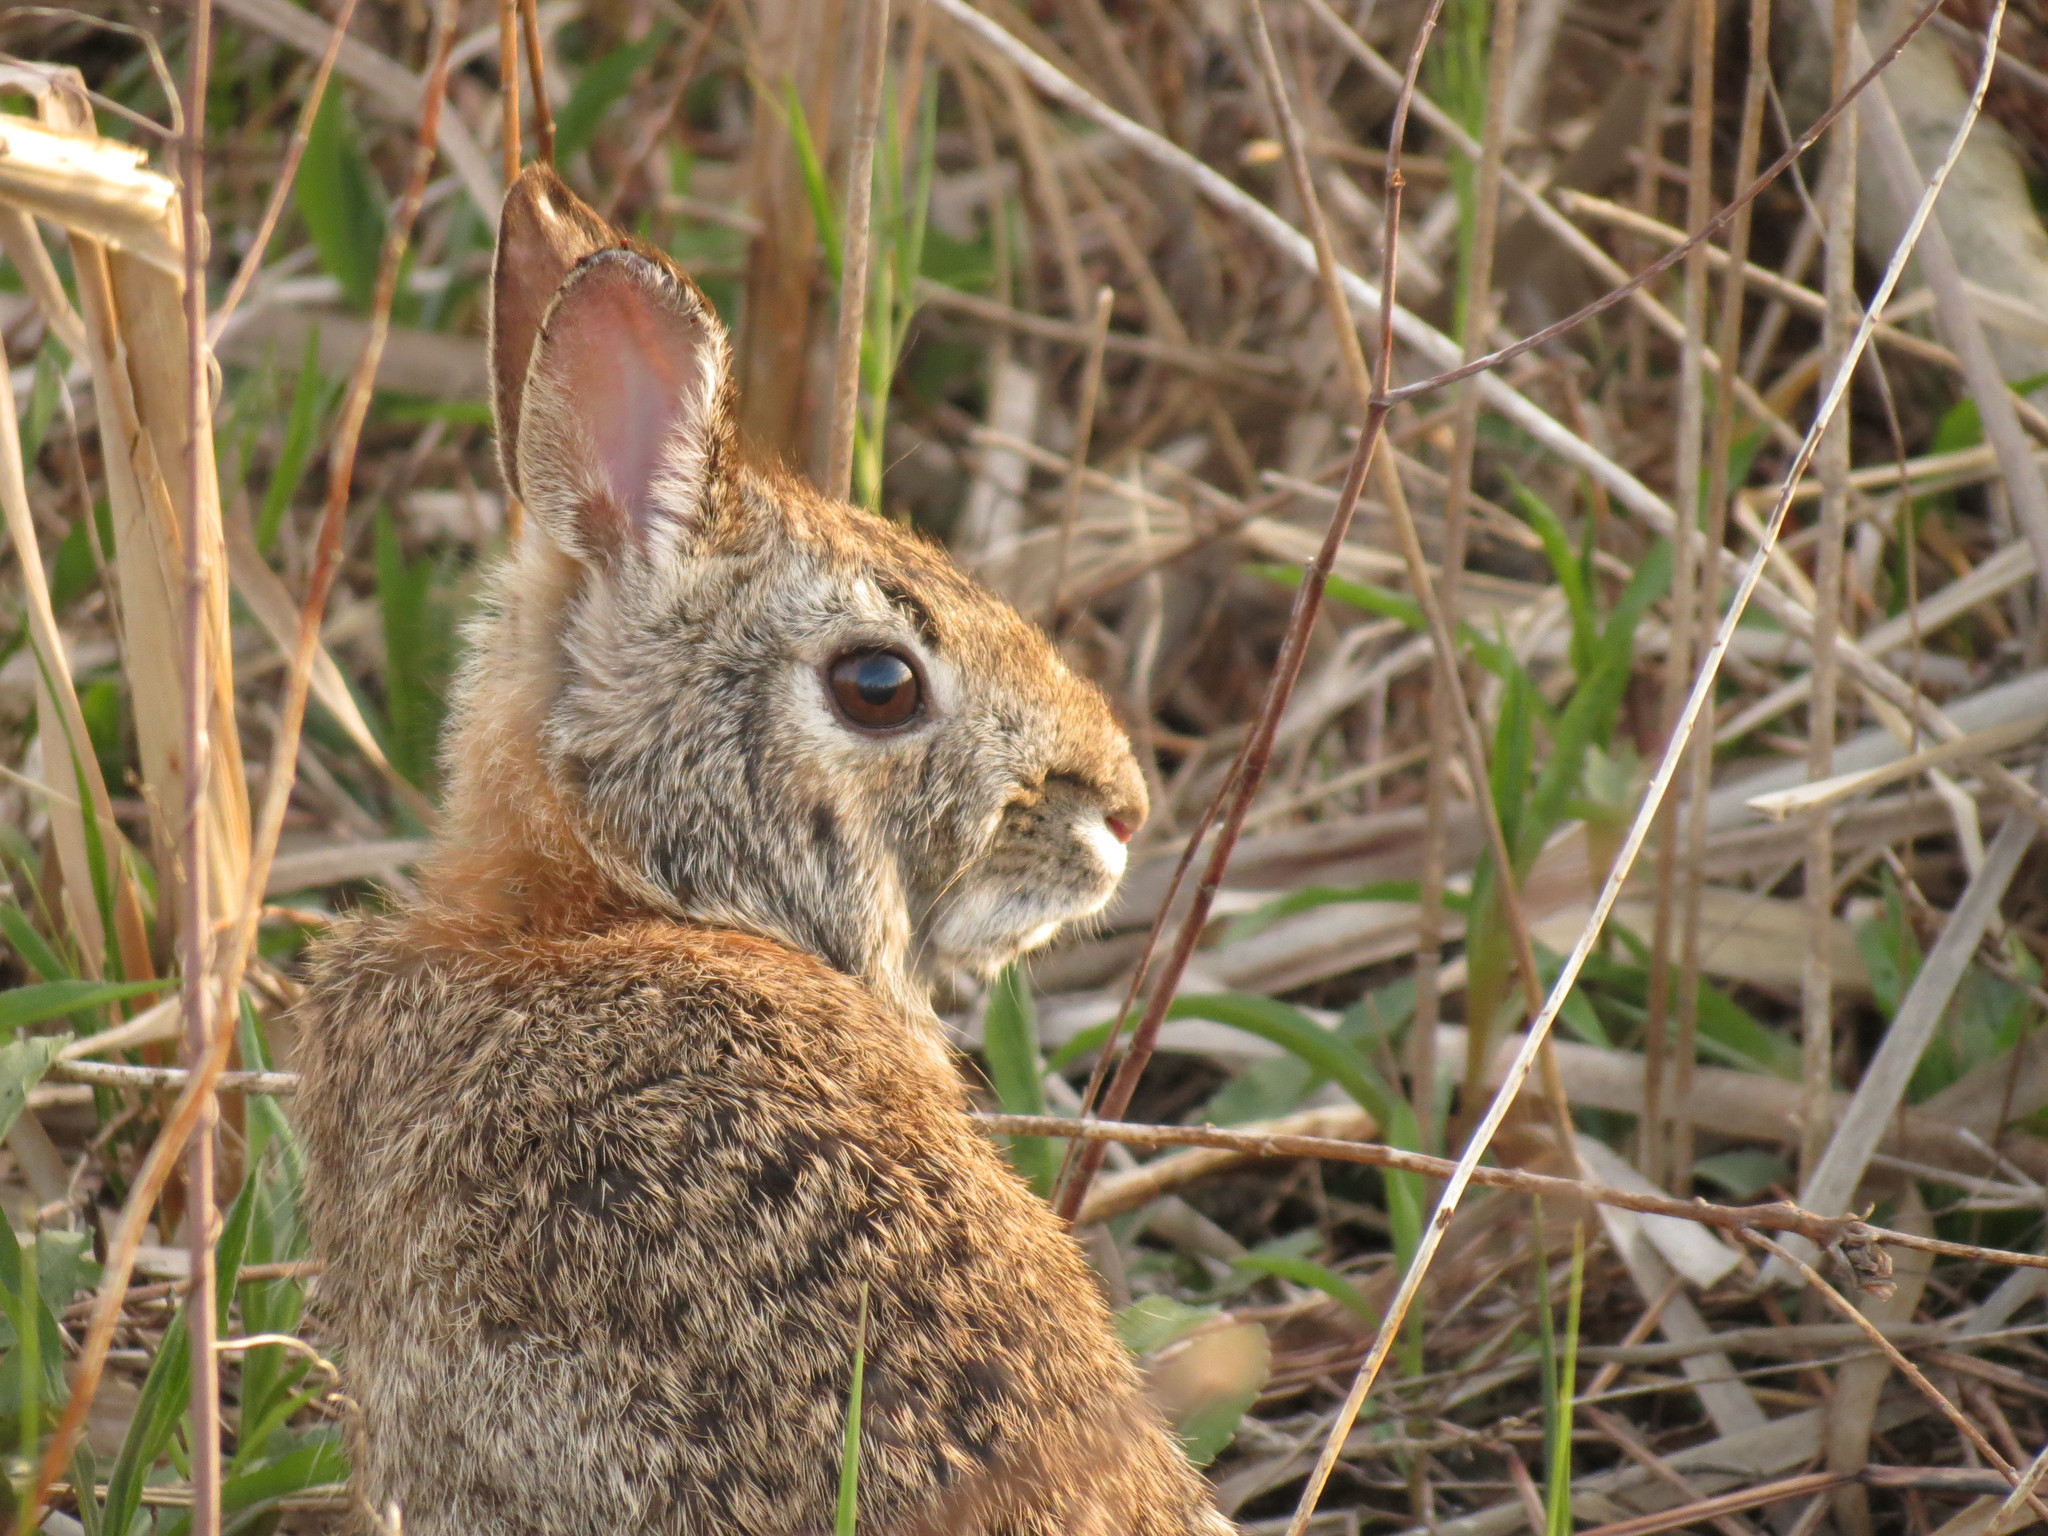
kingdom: Animalia
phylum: Chordata
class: Mammalia
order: Lagomorpha
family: Leporidae
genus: Sylvilagus
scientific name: Sylvilagus floridanus
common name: Eastern cottontail
